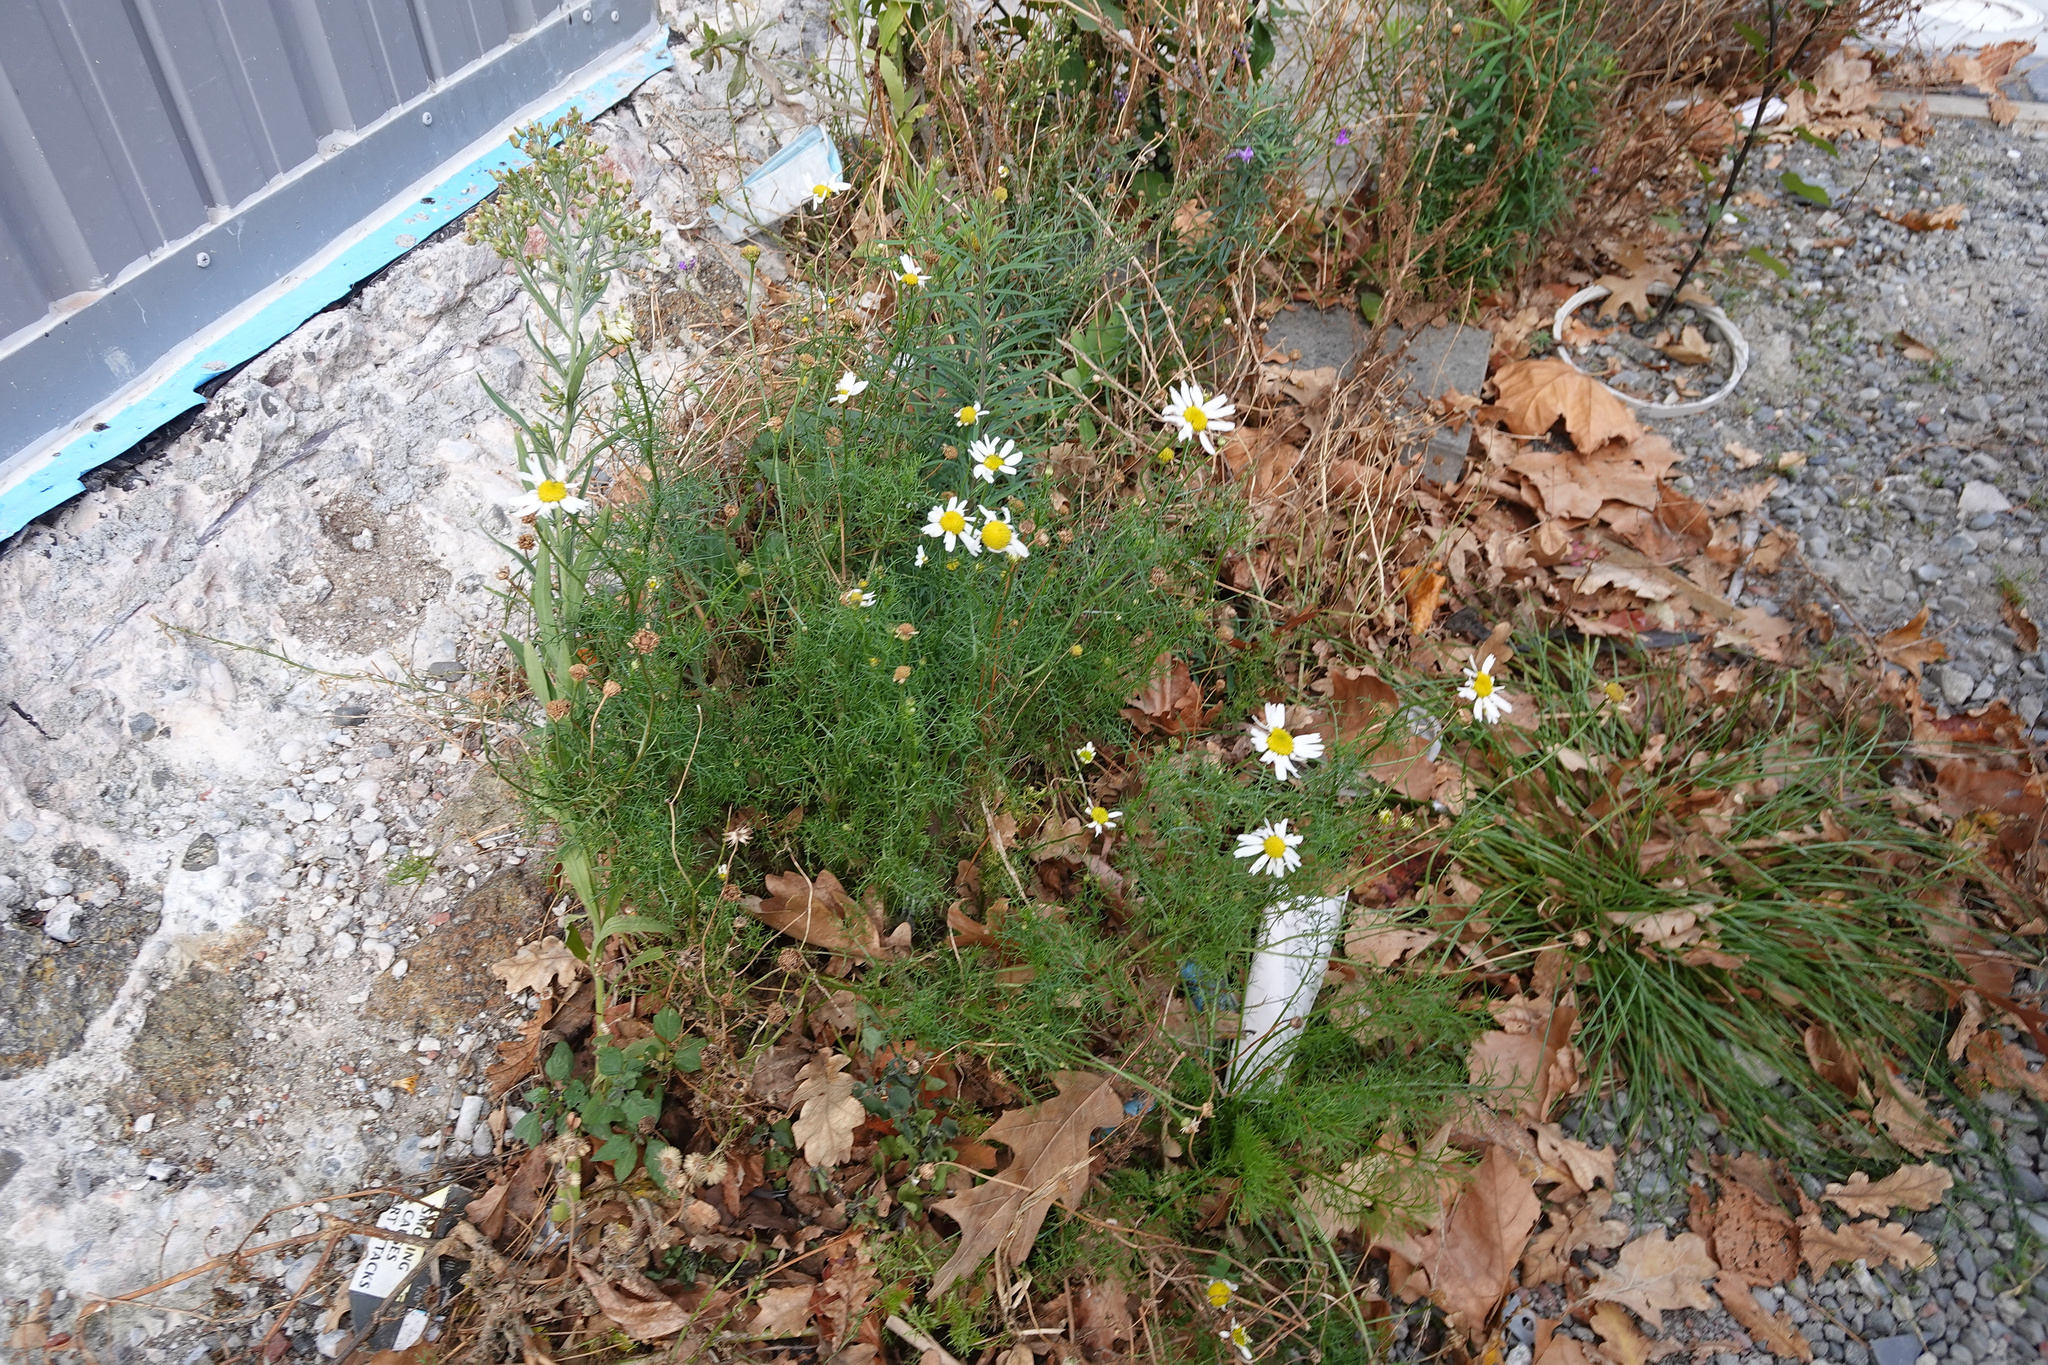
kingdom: Plantae
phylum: Tracheophyta
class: Magnoliopsida
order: Asterales
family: Asteraceae
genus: Tripleurospermum
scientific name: Tripleurospermum inodorum
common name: Scentless mayweed
